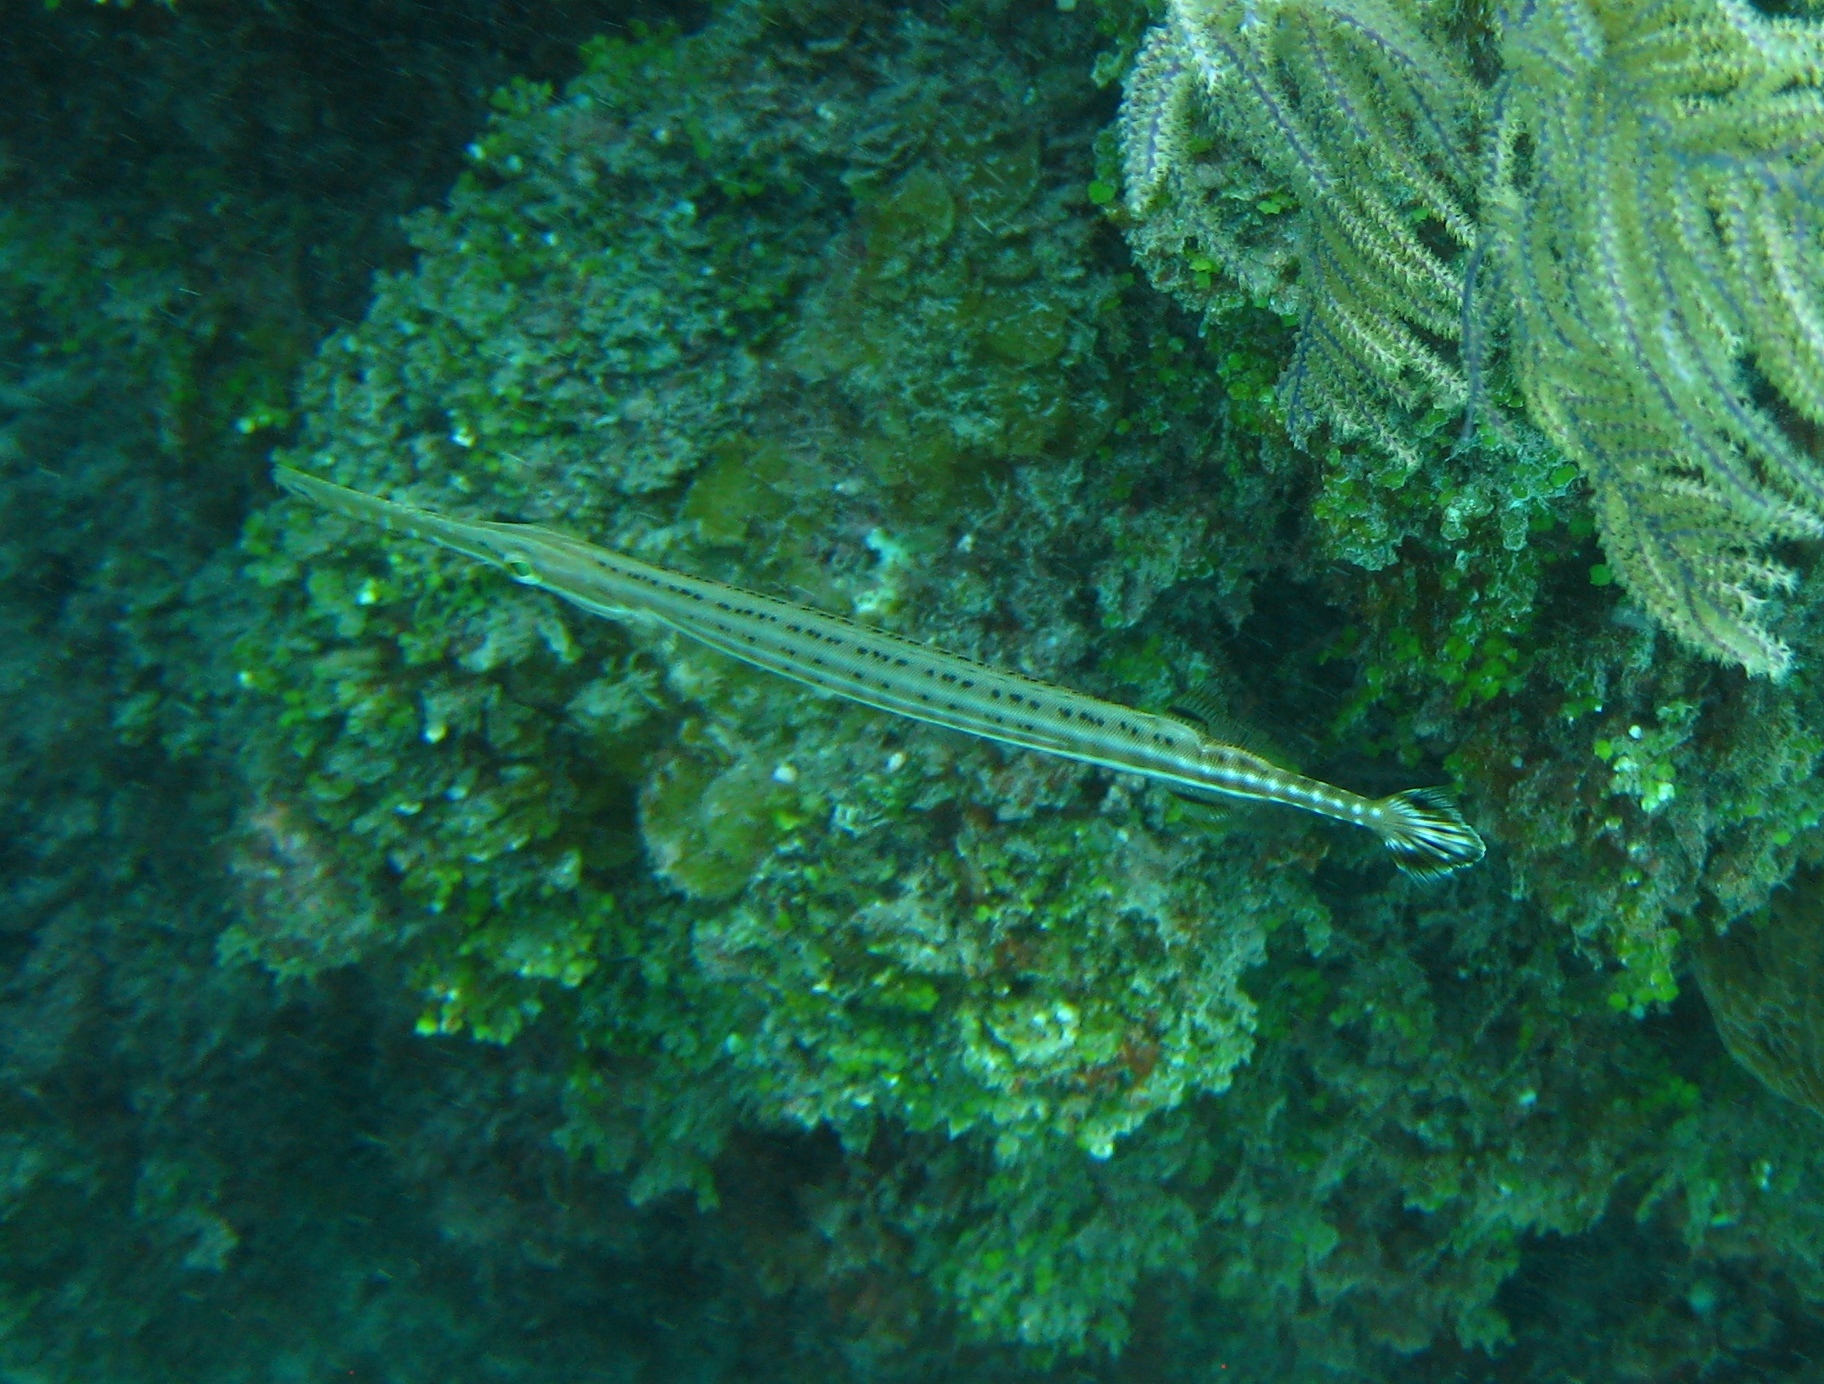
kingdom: Animalia
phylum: Chordata
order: Syngnathiformes
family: Aulostomidae
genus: Aulostomus
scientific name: Aulostomus maculatus
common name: West atlantic trumpetfish
